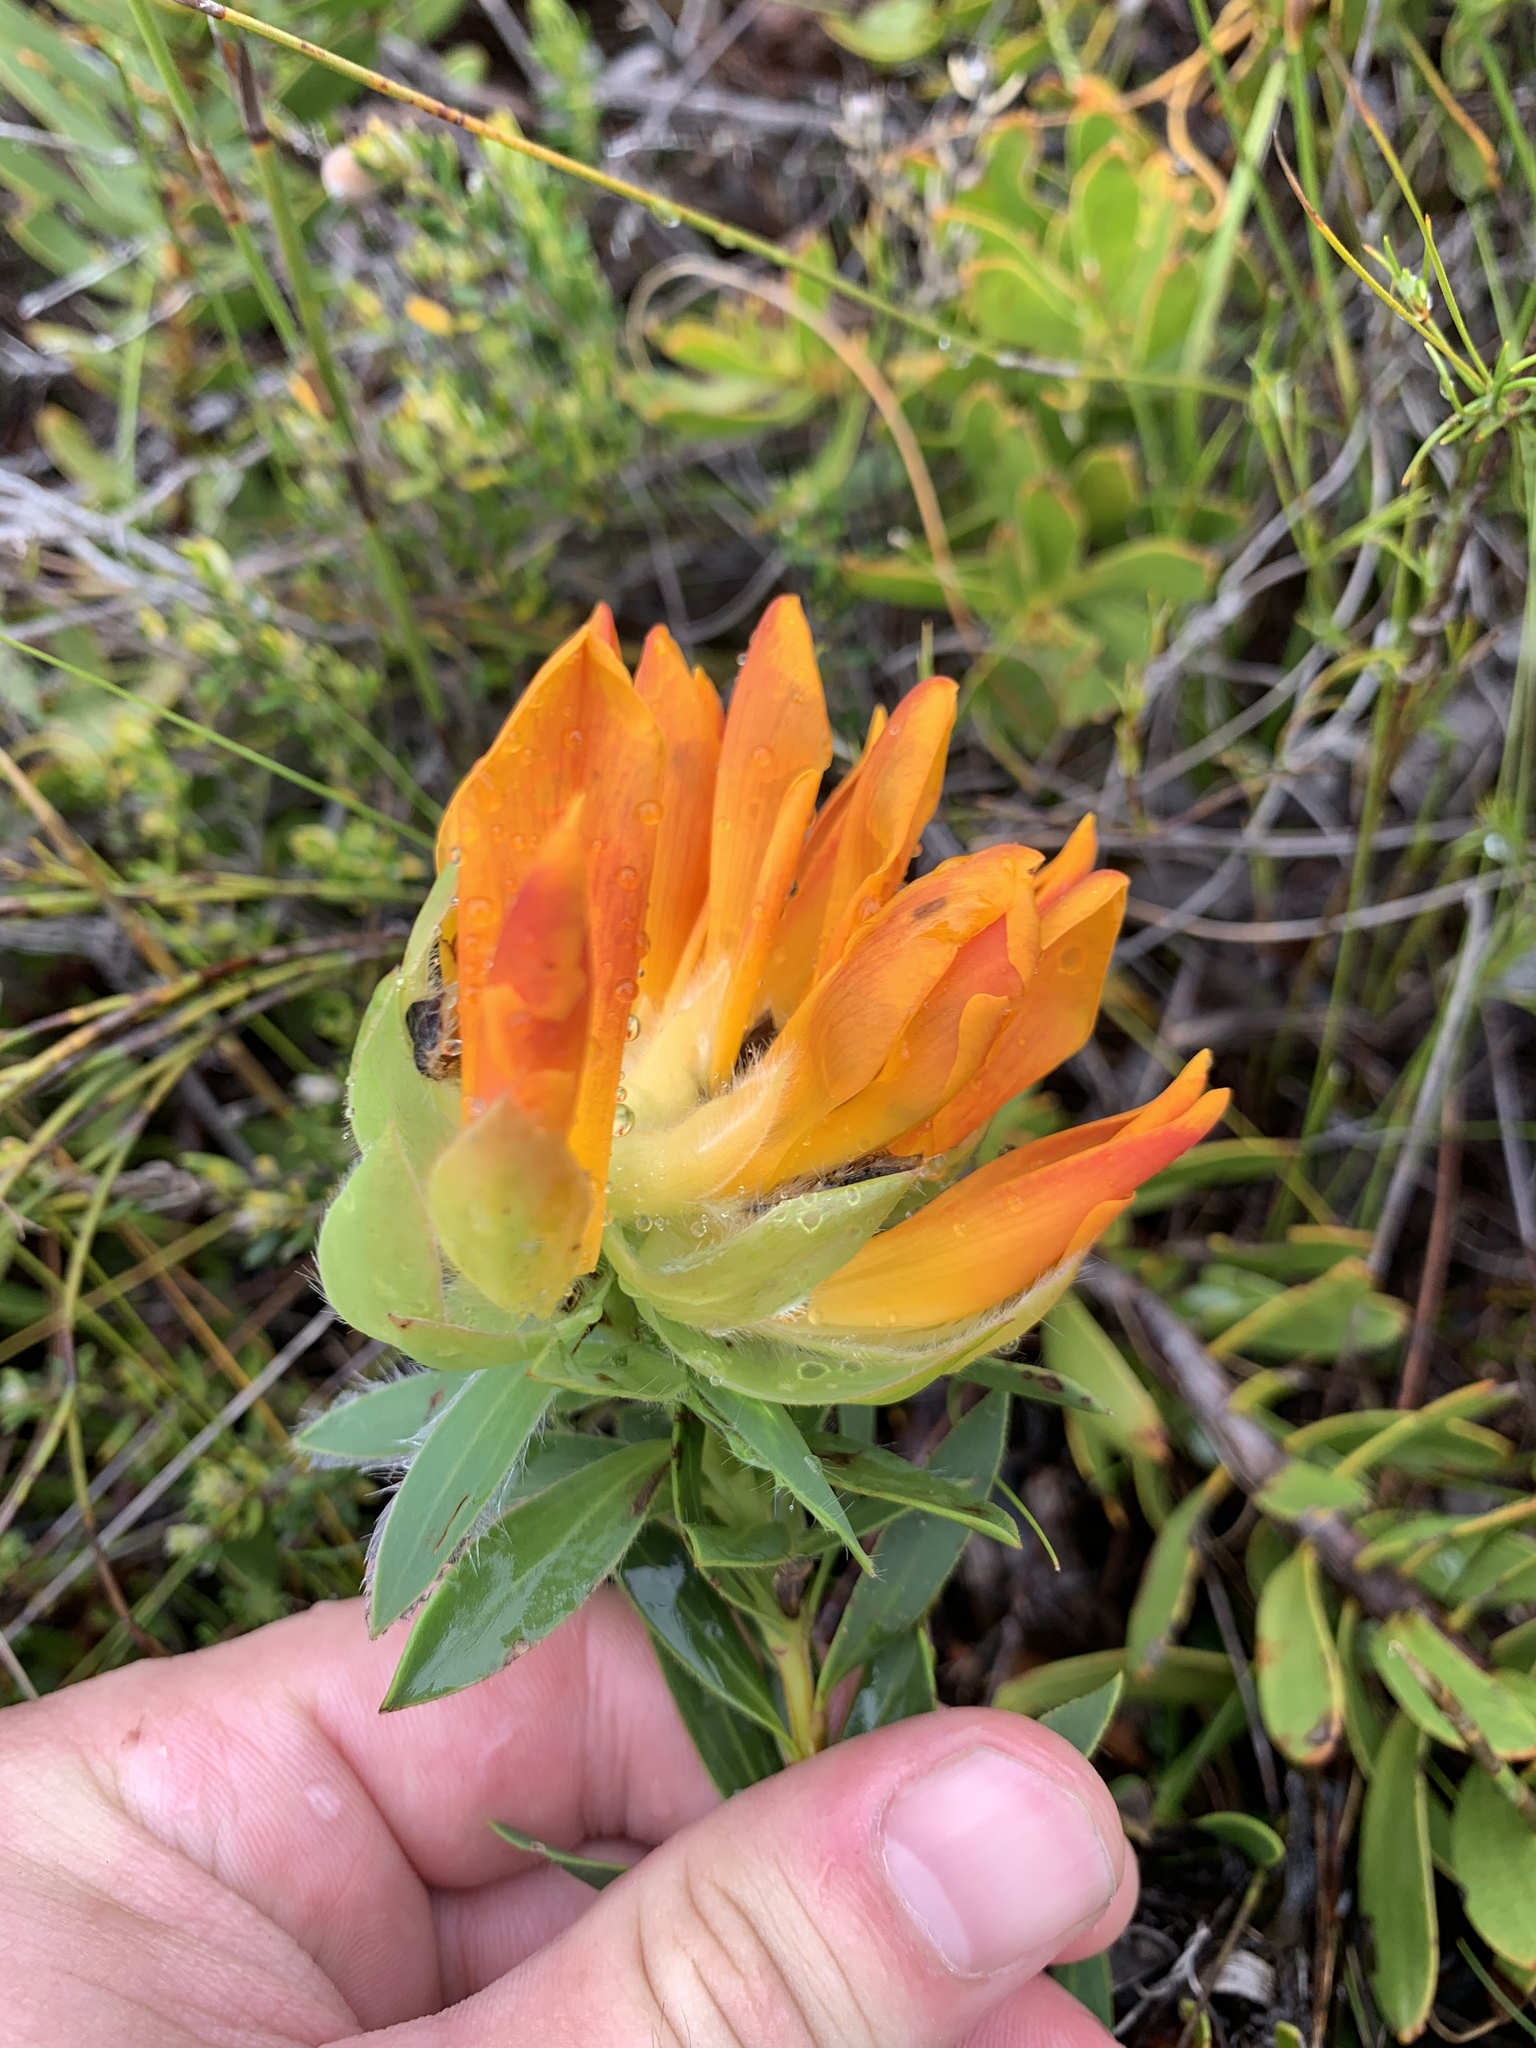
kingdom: Plantae
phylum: Tracheophyta
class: Magnoliopsida
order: Fabales
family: Fabaceae
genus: Liparia
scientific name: Liparia splendens
